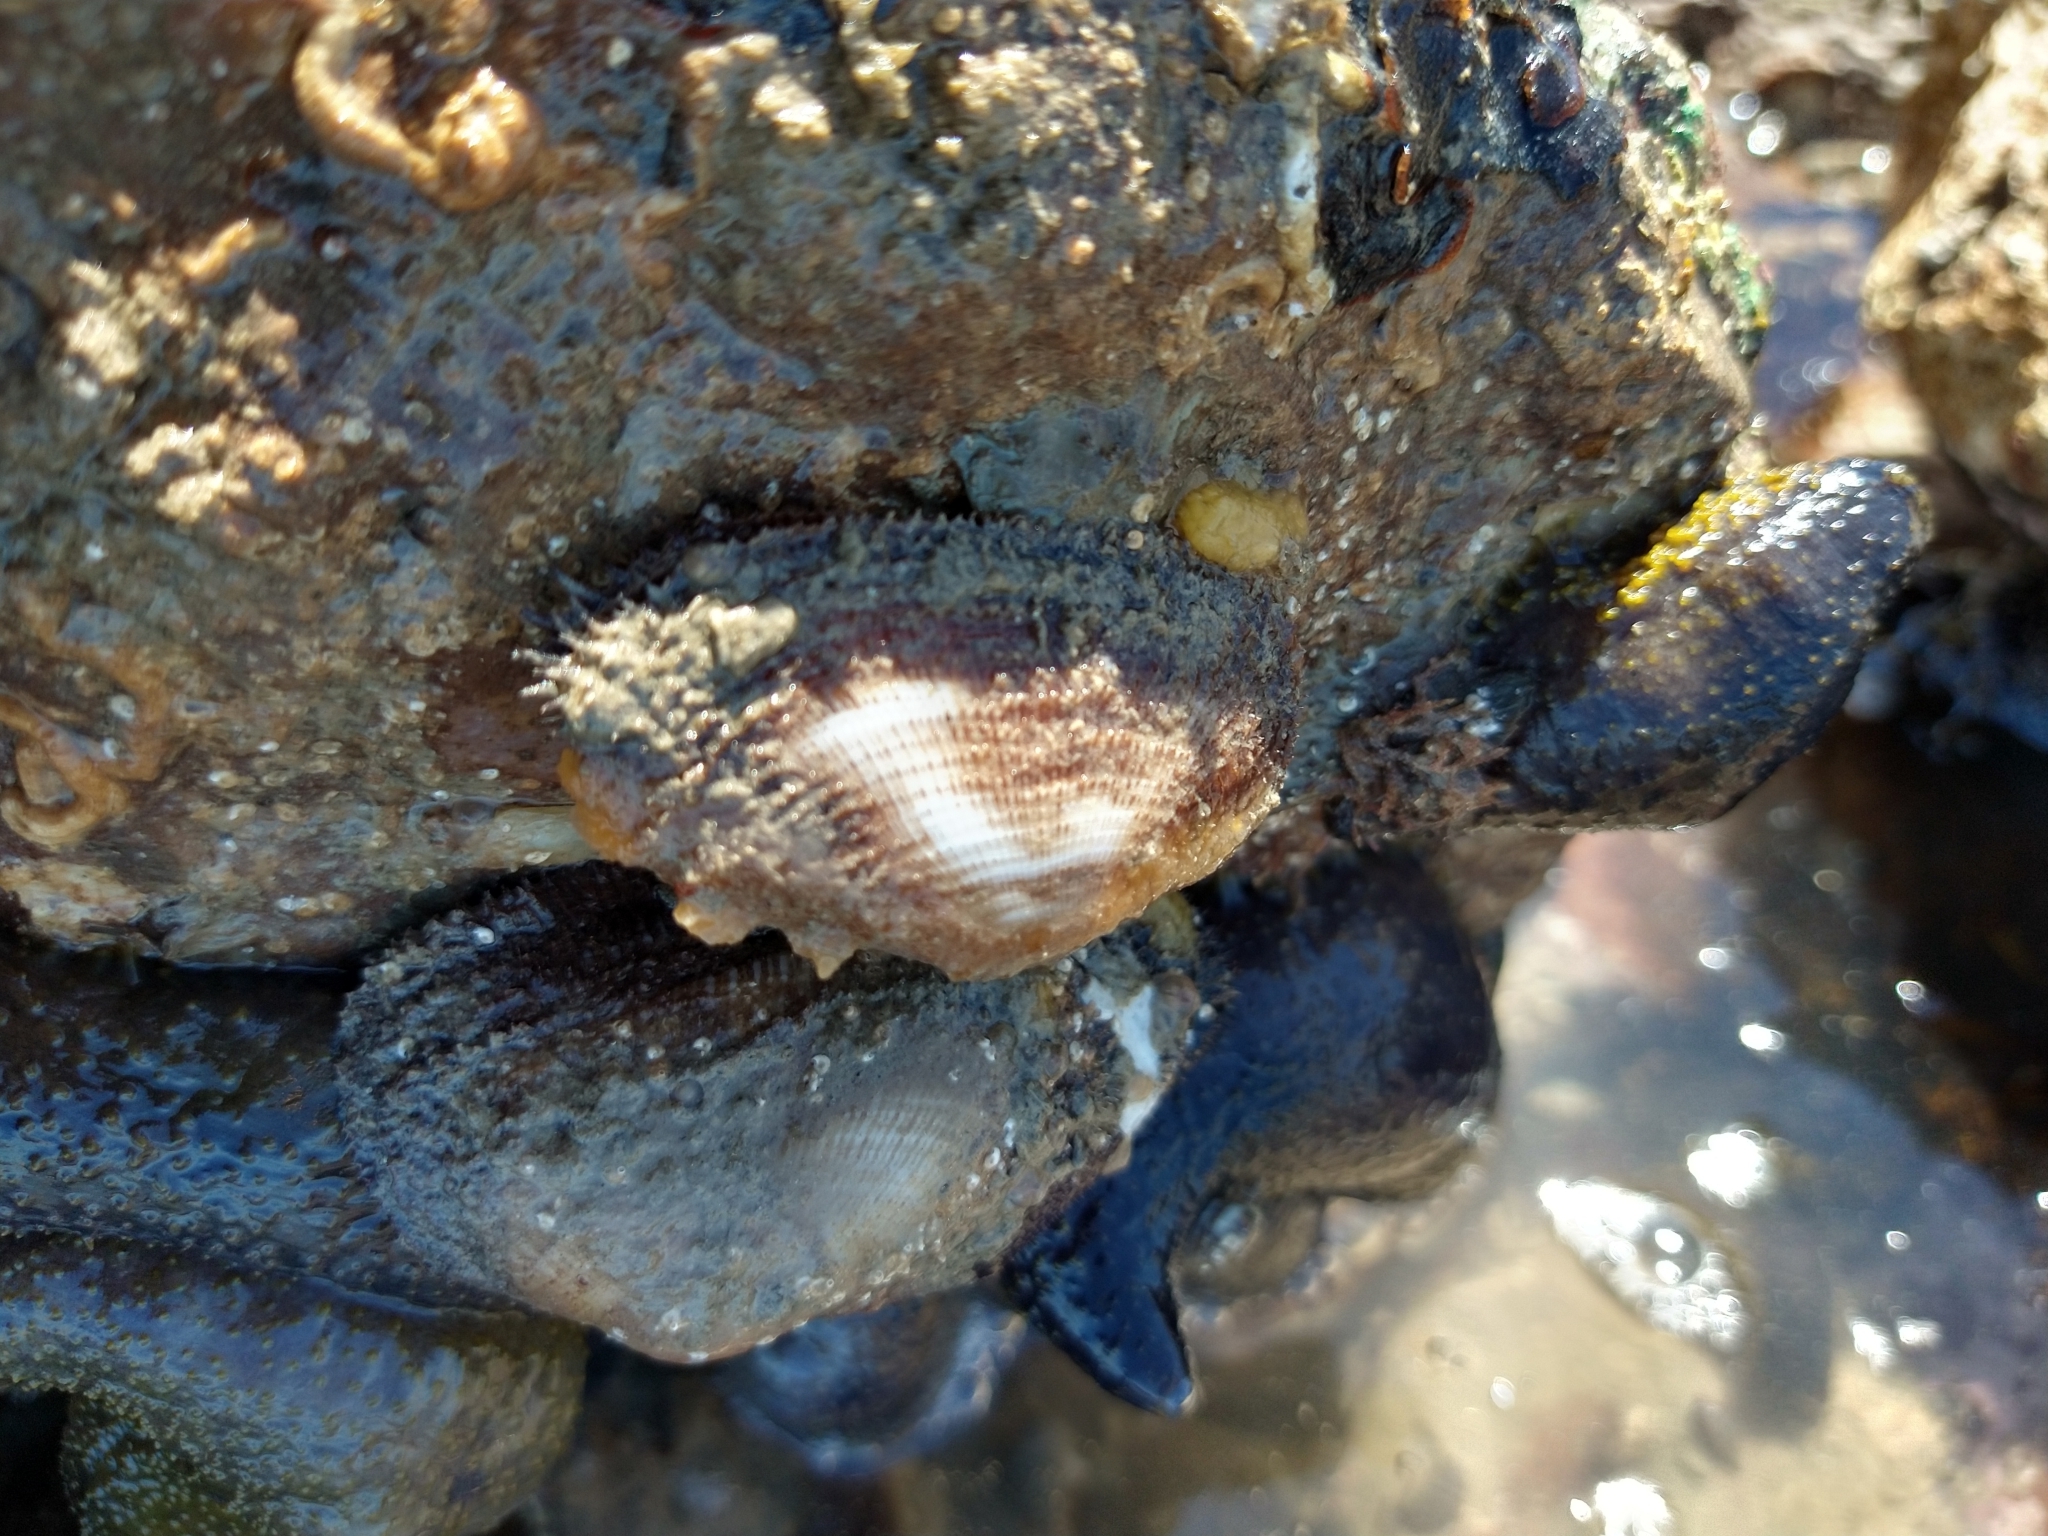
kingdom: Animalia
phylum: Mollusca
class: Bivalvia
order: Carditida
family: Carditidae
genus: Carditamera
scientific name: Carditamera affinis
